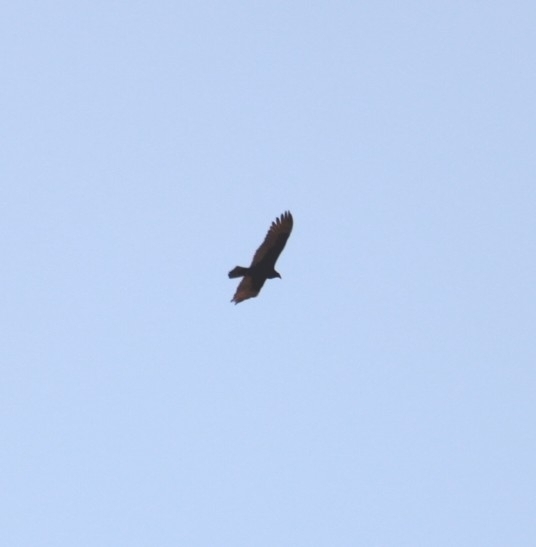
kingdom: Animalia
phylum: Chordata
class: Aves
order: Accipitriformes
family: Cathartidae
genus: Cathartes
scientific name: Cathartes aura
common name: Turkey vulture
